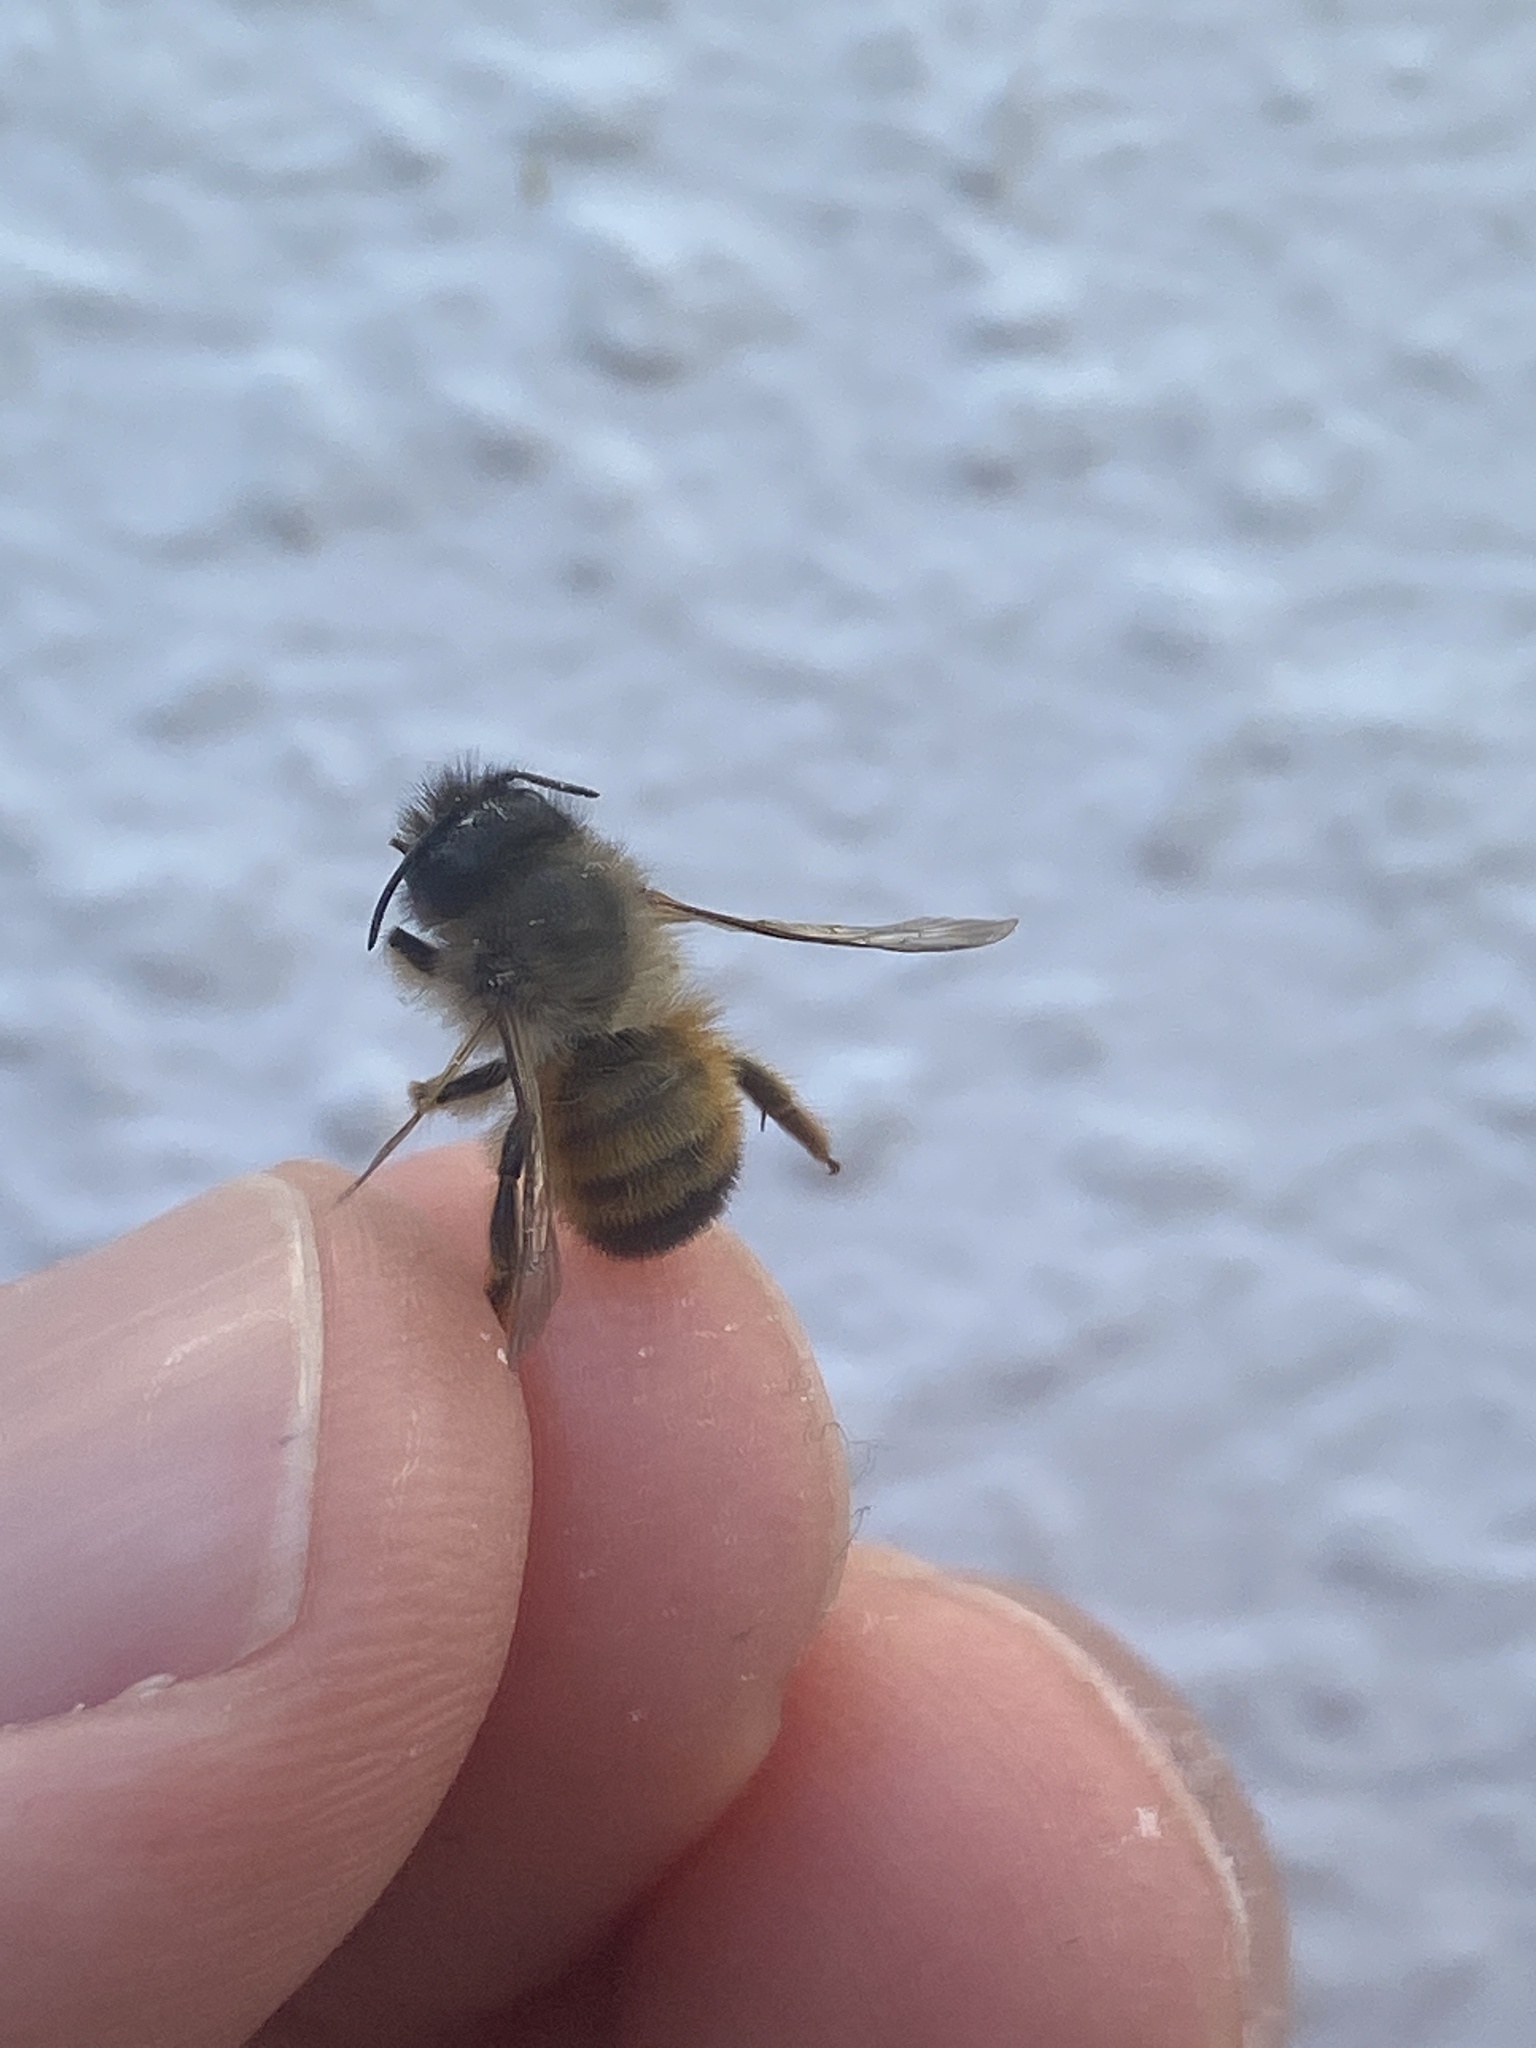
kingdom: Animalia
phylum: Arthropoda
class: Insecta
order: Hymenoptera
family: Megachilidae
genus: Osmia
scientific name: Osmia bicornis
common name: Red mason bee
